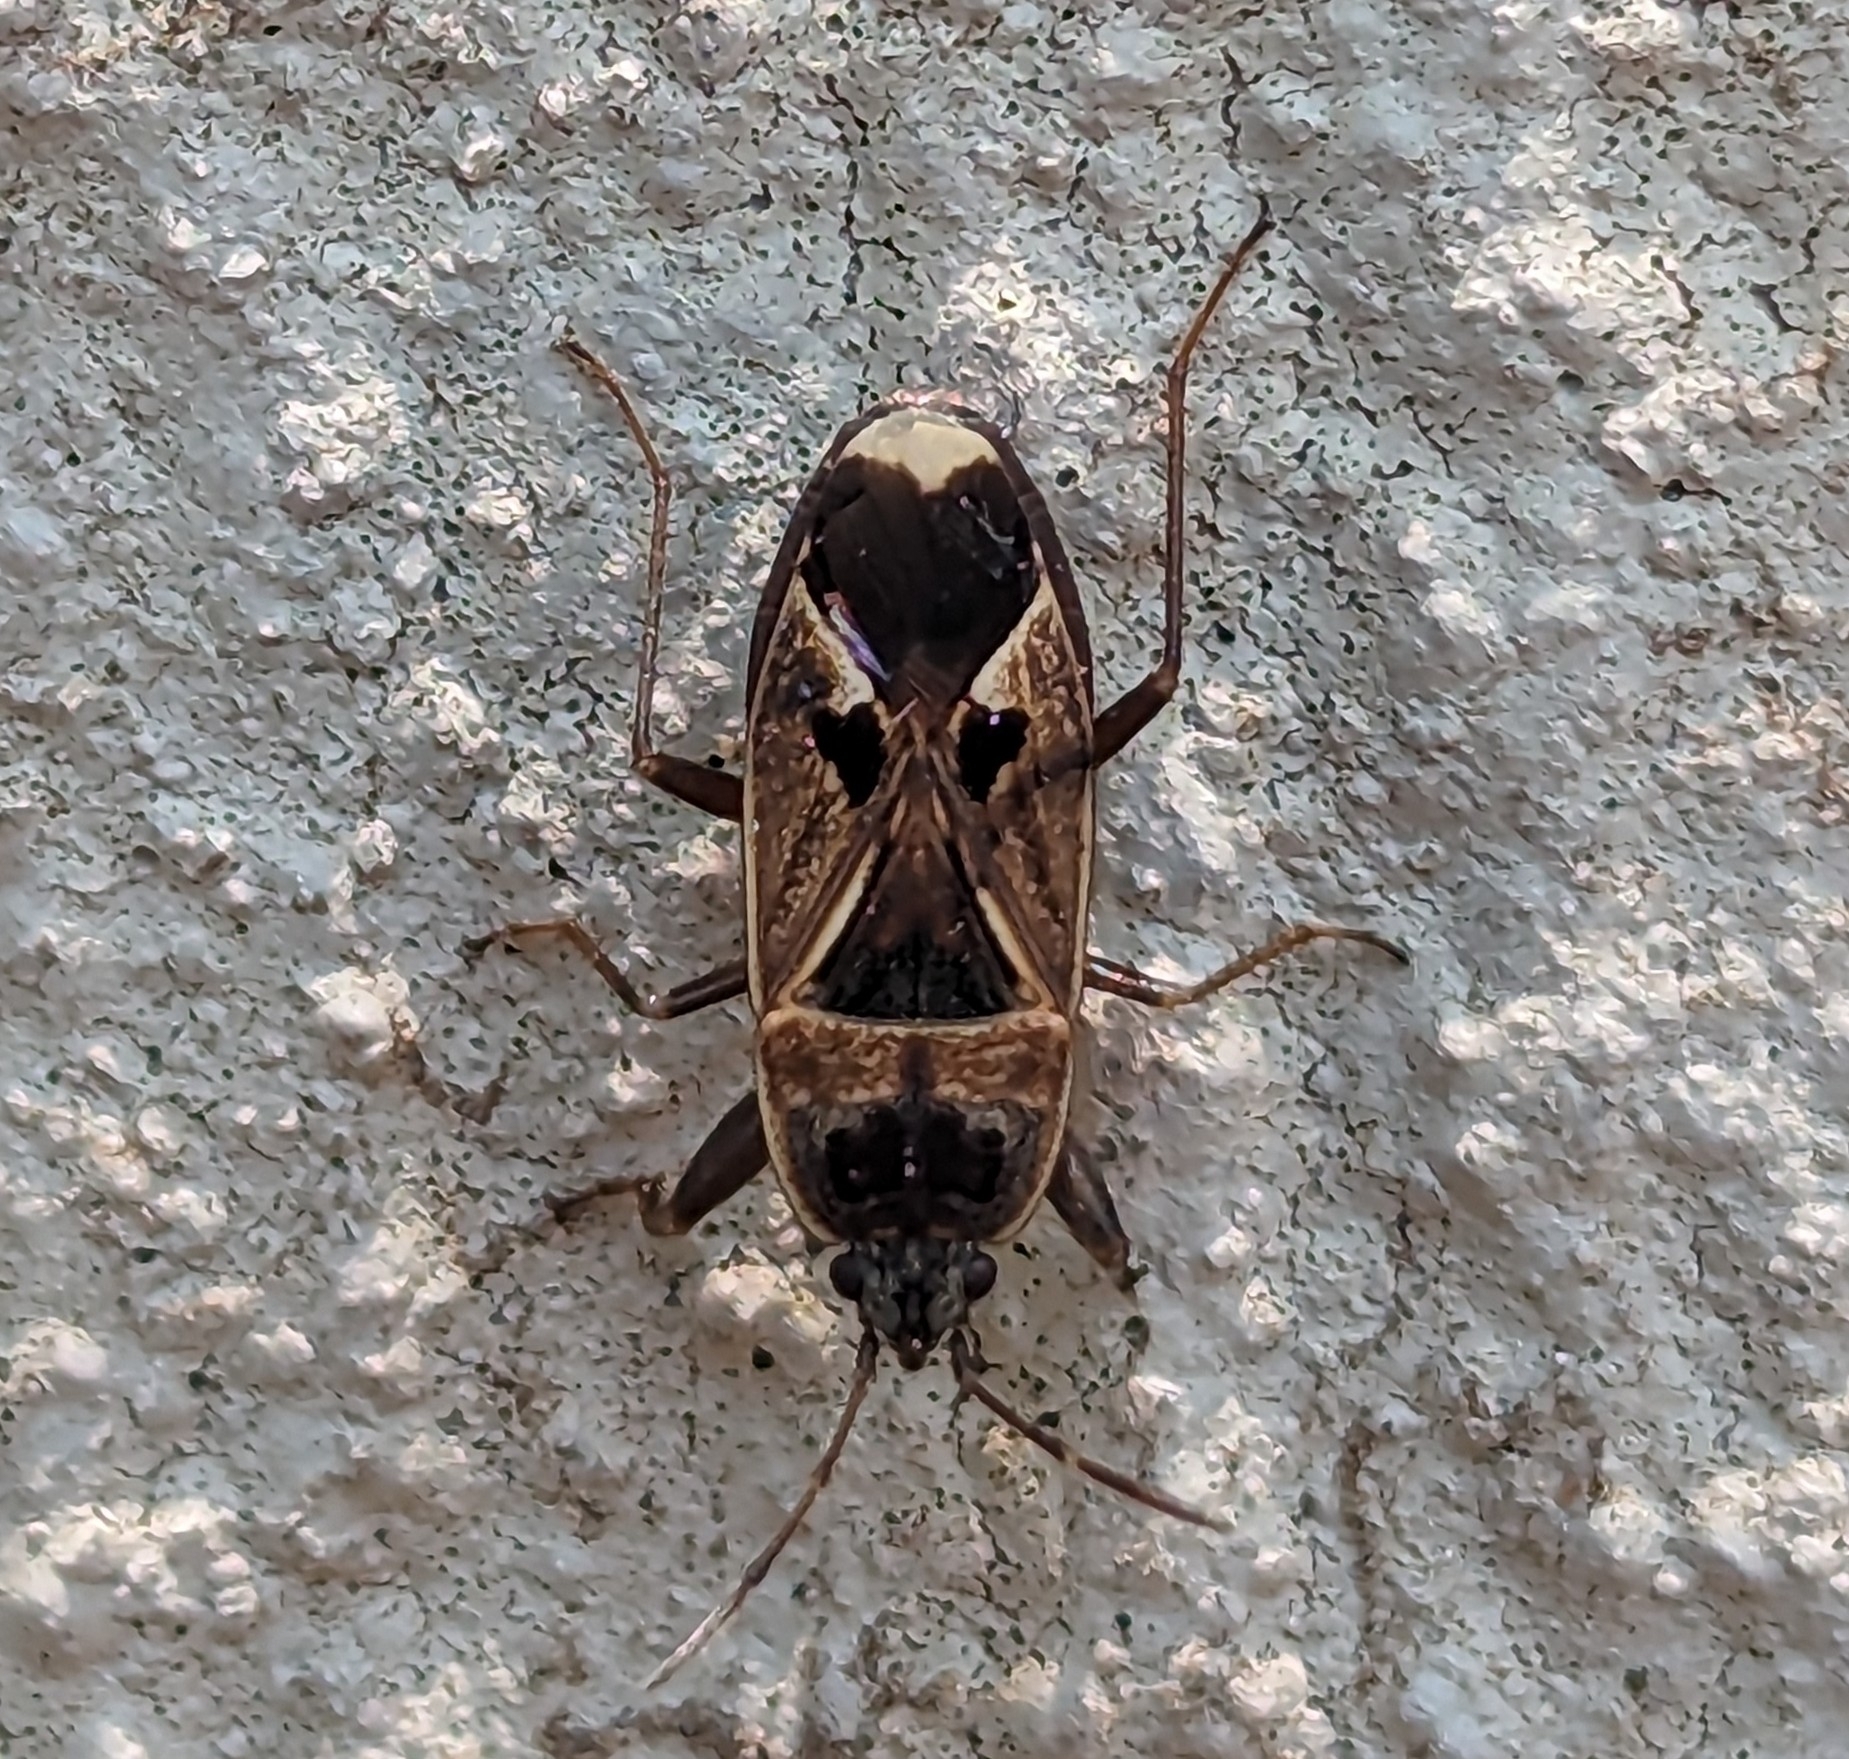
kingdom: Animalia
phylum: Arthropoda
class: Insecta
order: Hemiptera
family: Rhyparochromidae
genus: Naphius
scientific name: Naphius apicalis
